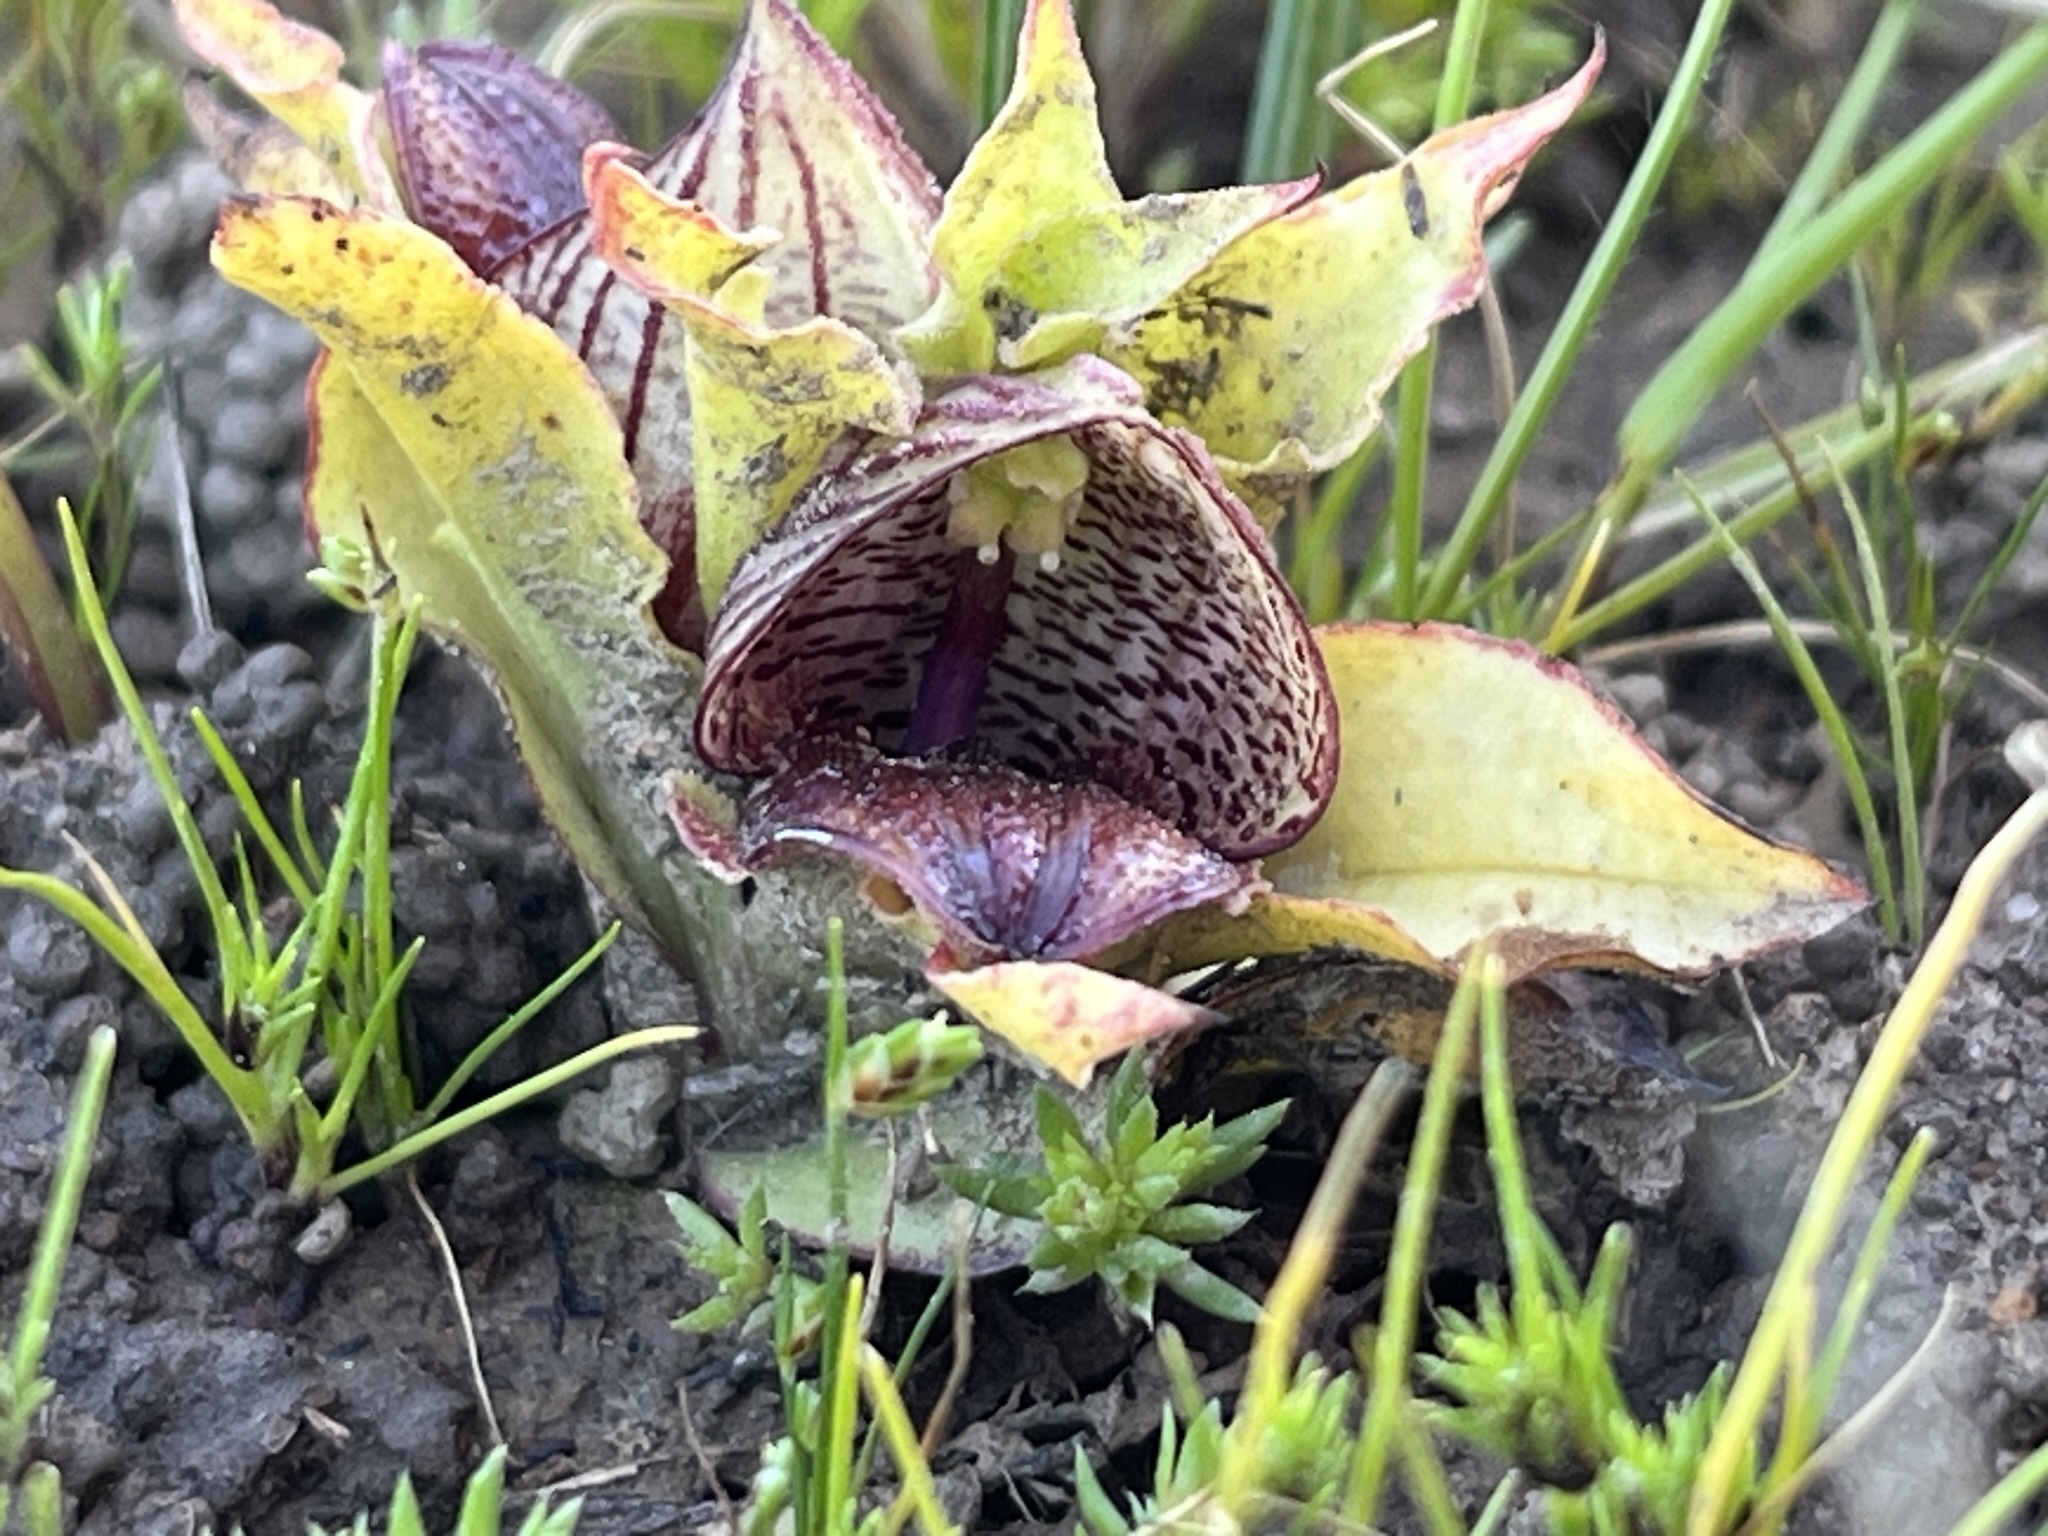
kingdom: Plantae
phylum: Tracheophyta
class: Liliopsida
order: Asparagales
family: Orchidaceae
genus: Satyrium
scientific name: Satyrium pumilum
